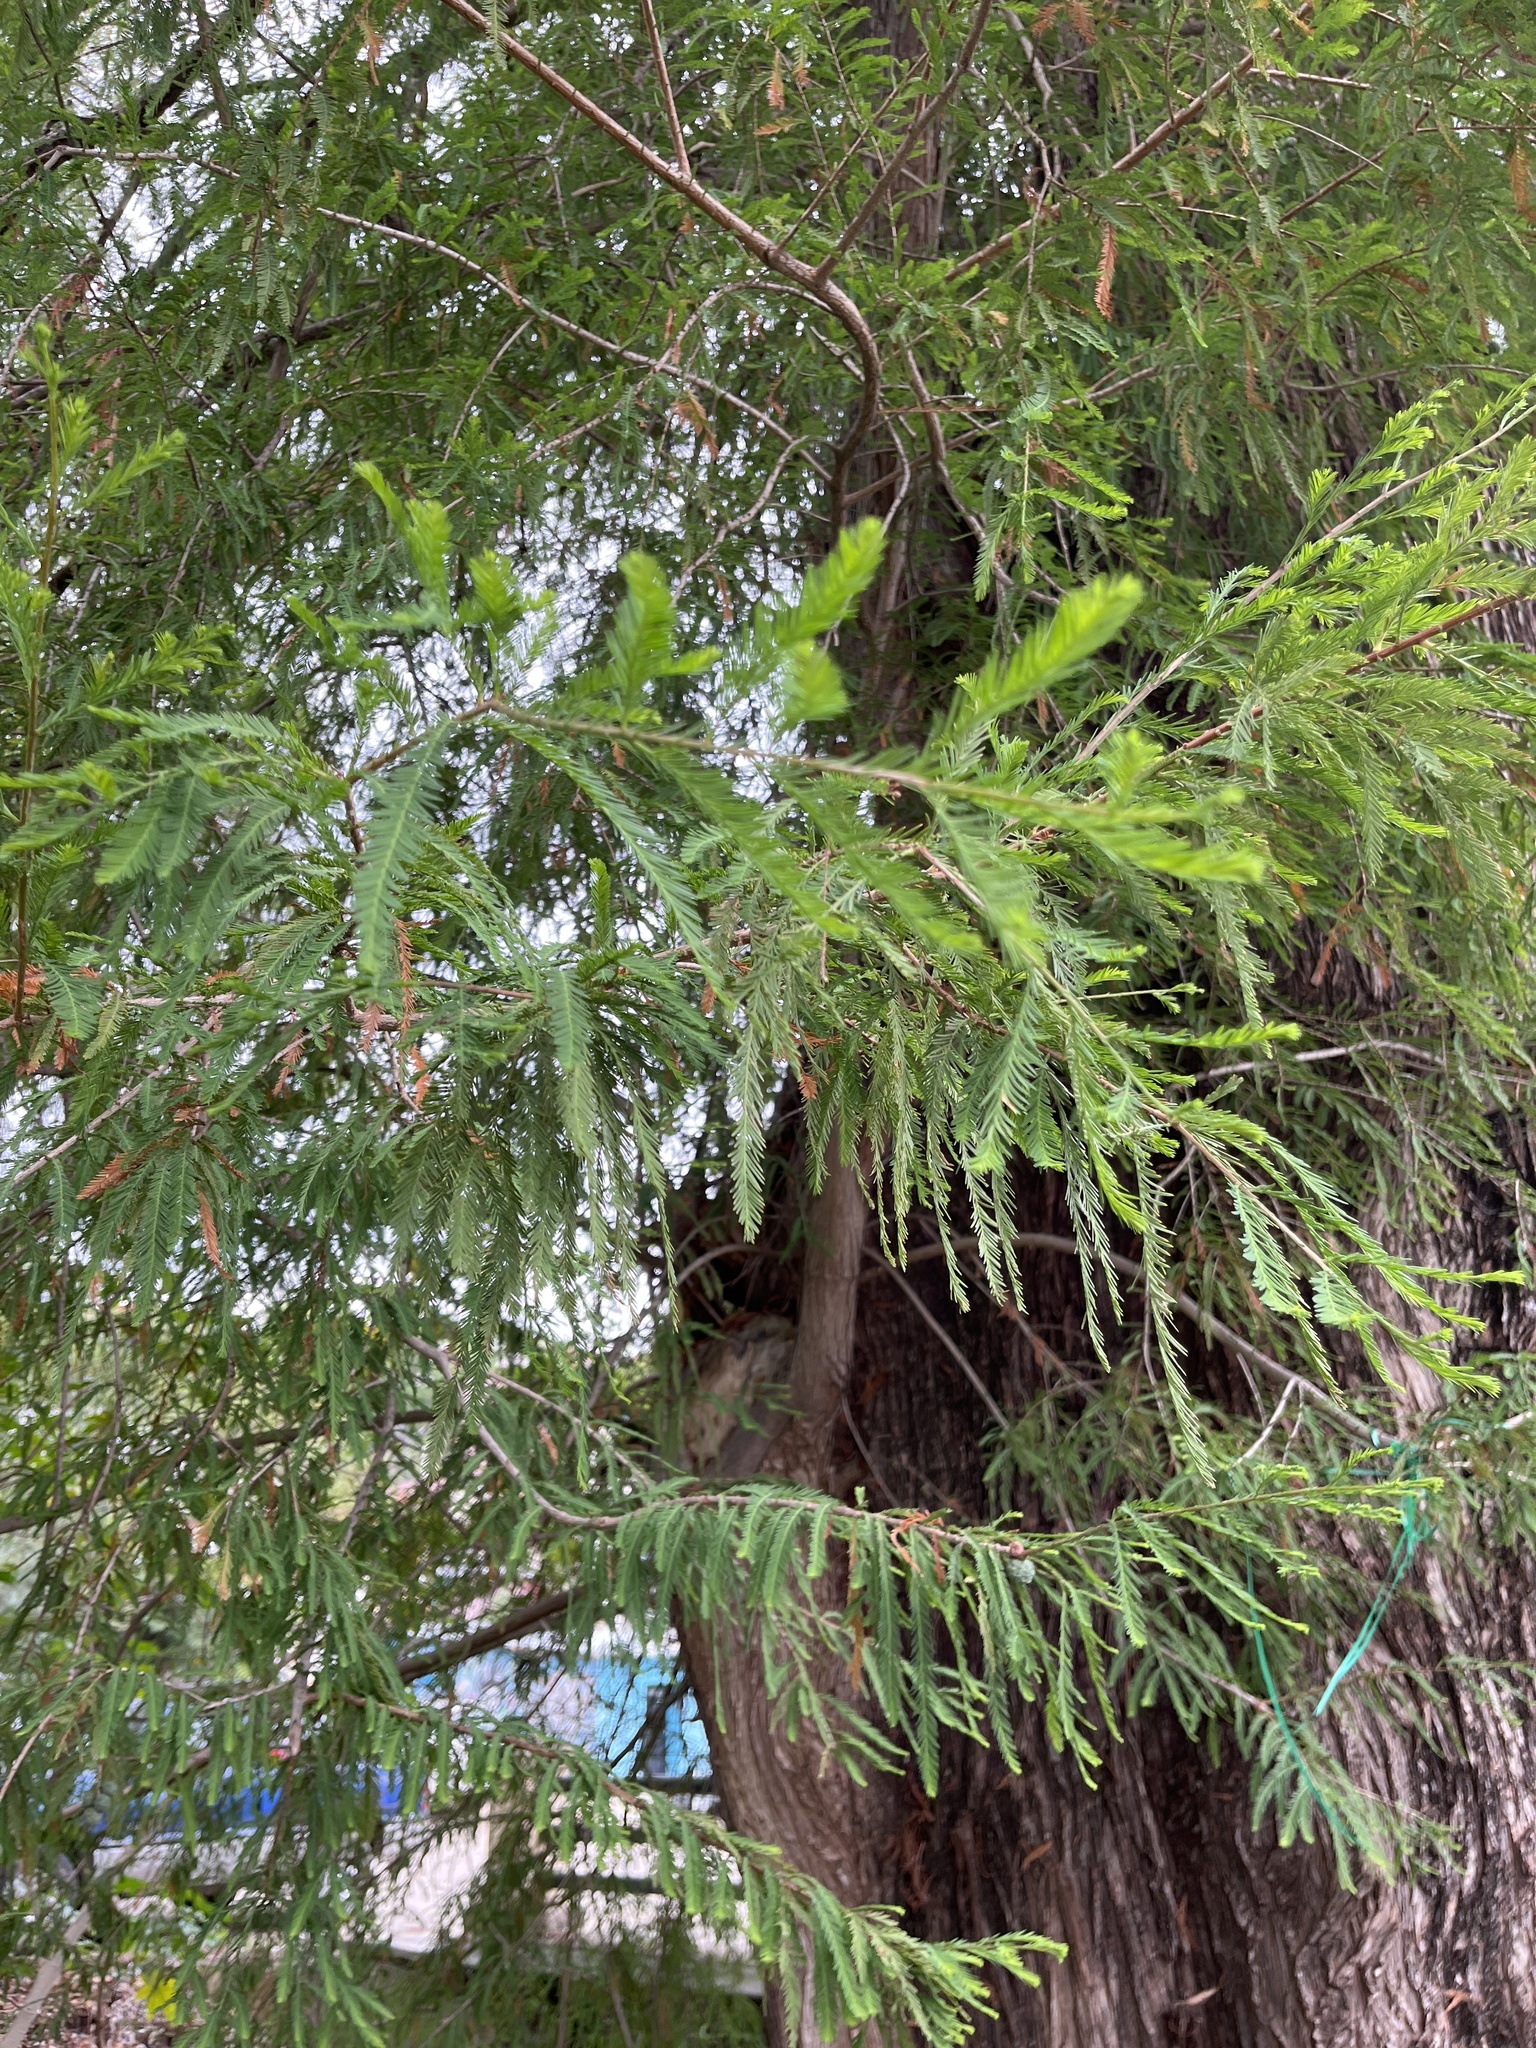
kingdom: Plantae
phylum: Tracheophyta
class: Pinopsida
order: Pinales
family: Cupressaceae
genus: Taxodium
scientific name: Taxodium mucronatum
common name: Montezume bald cypress
